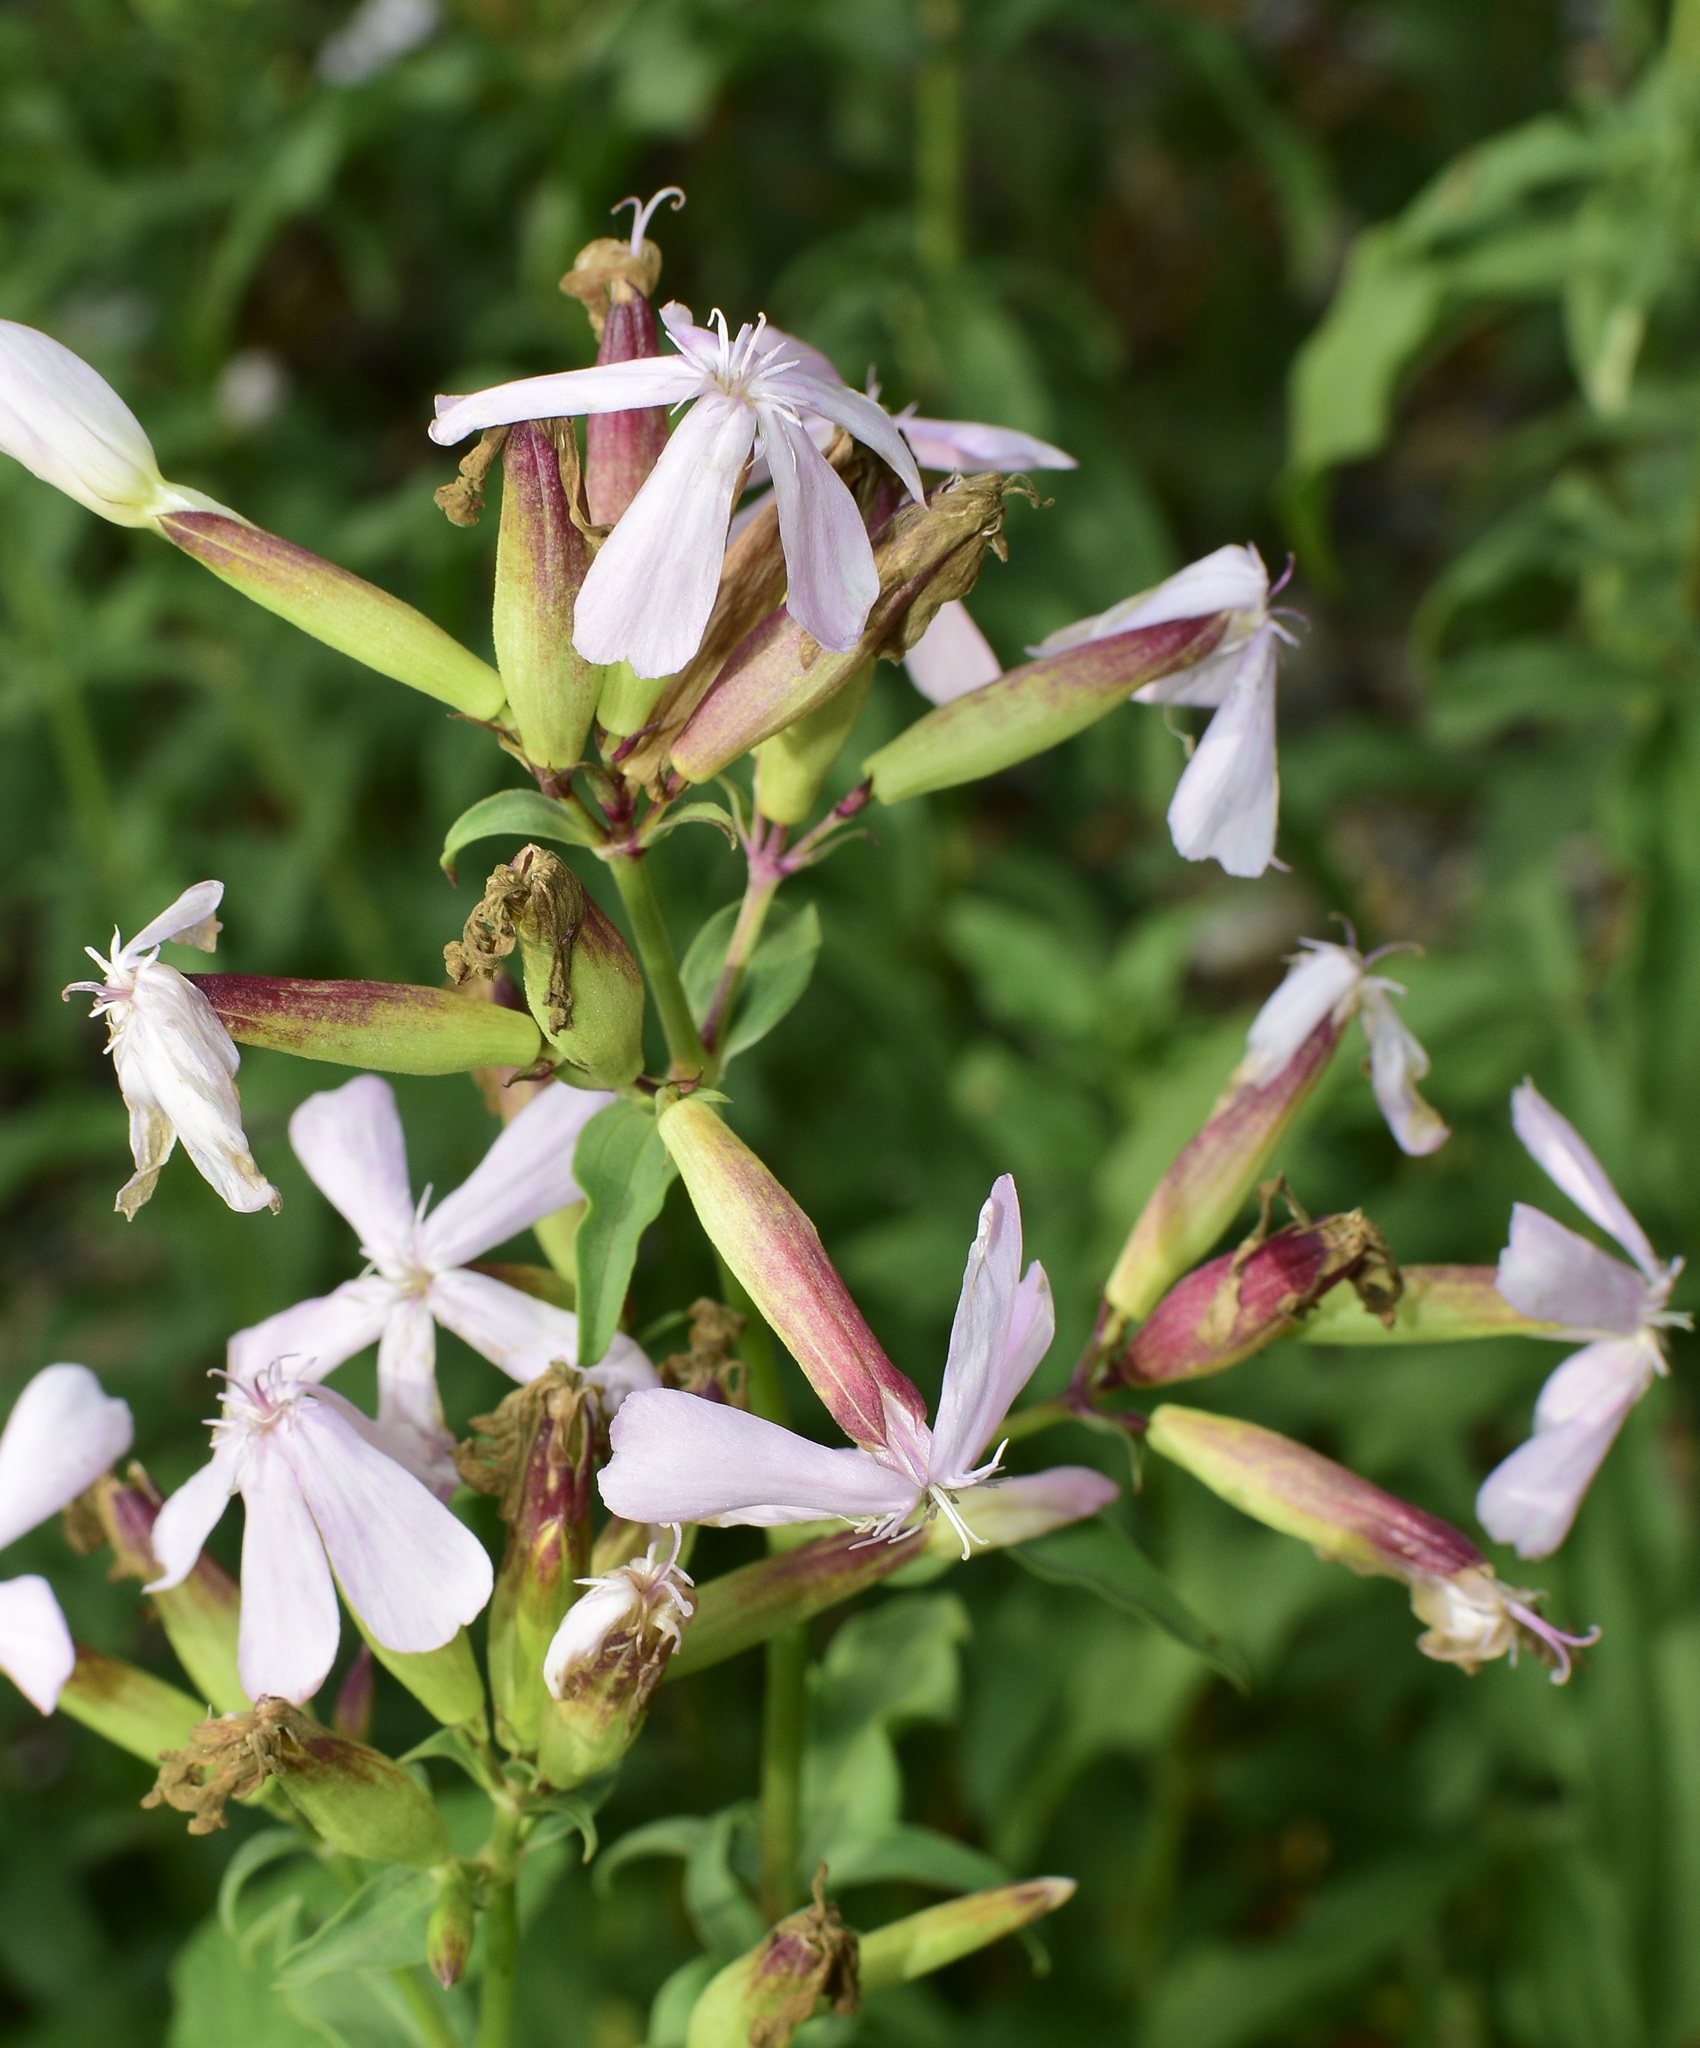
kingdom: Plantae
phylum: Tracheophyta
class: Magnoliopsida
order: Caryophyllales
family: Caryophyllaceae
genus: Saponaria
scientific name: Saponaria officinalis
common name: Soapwort
